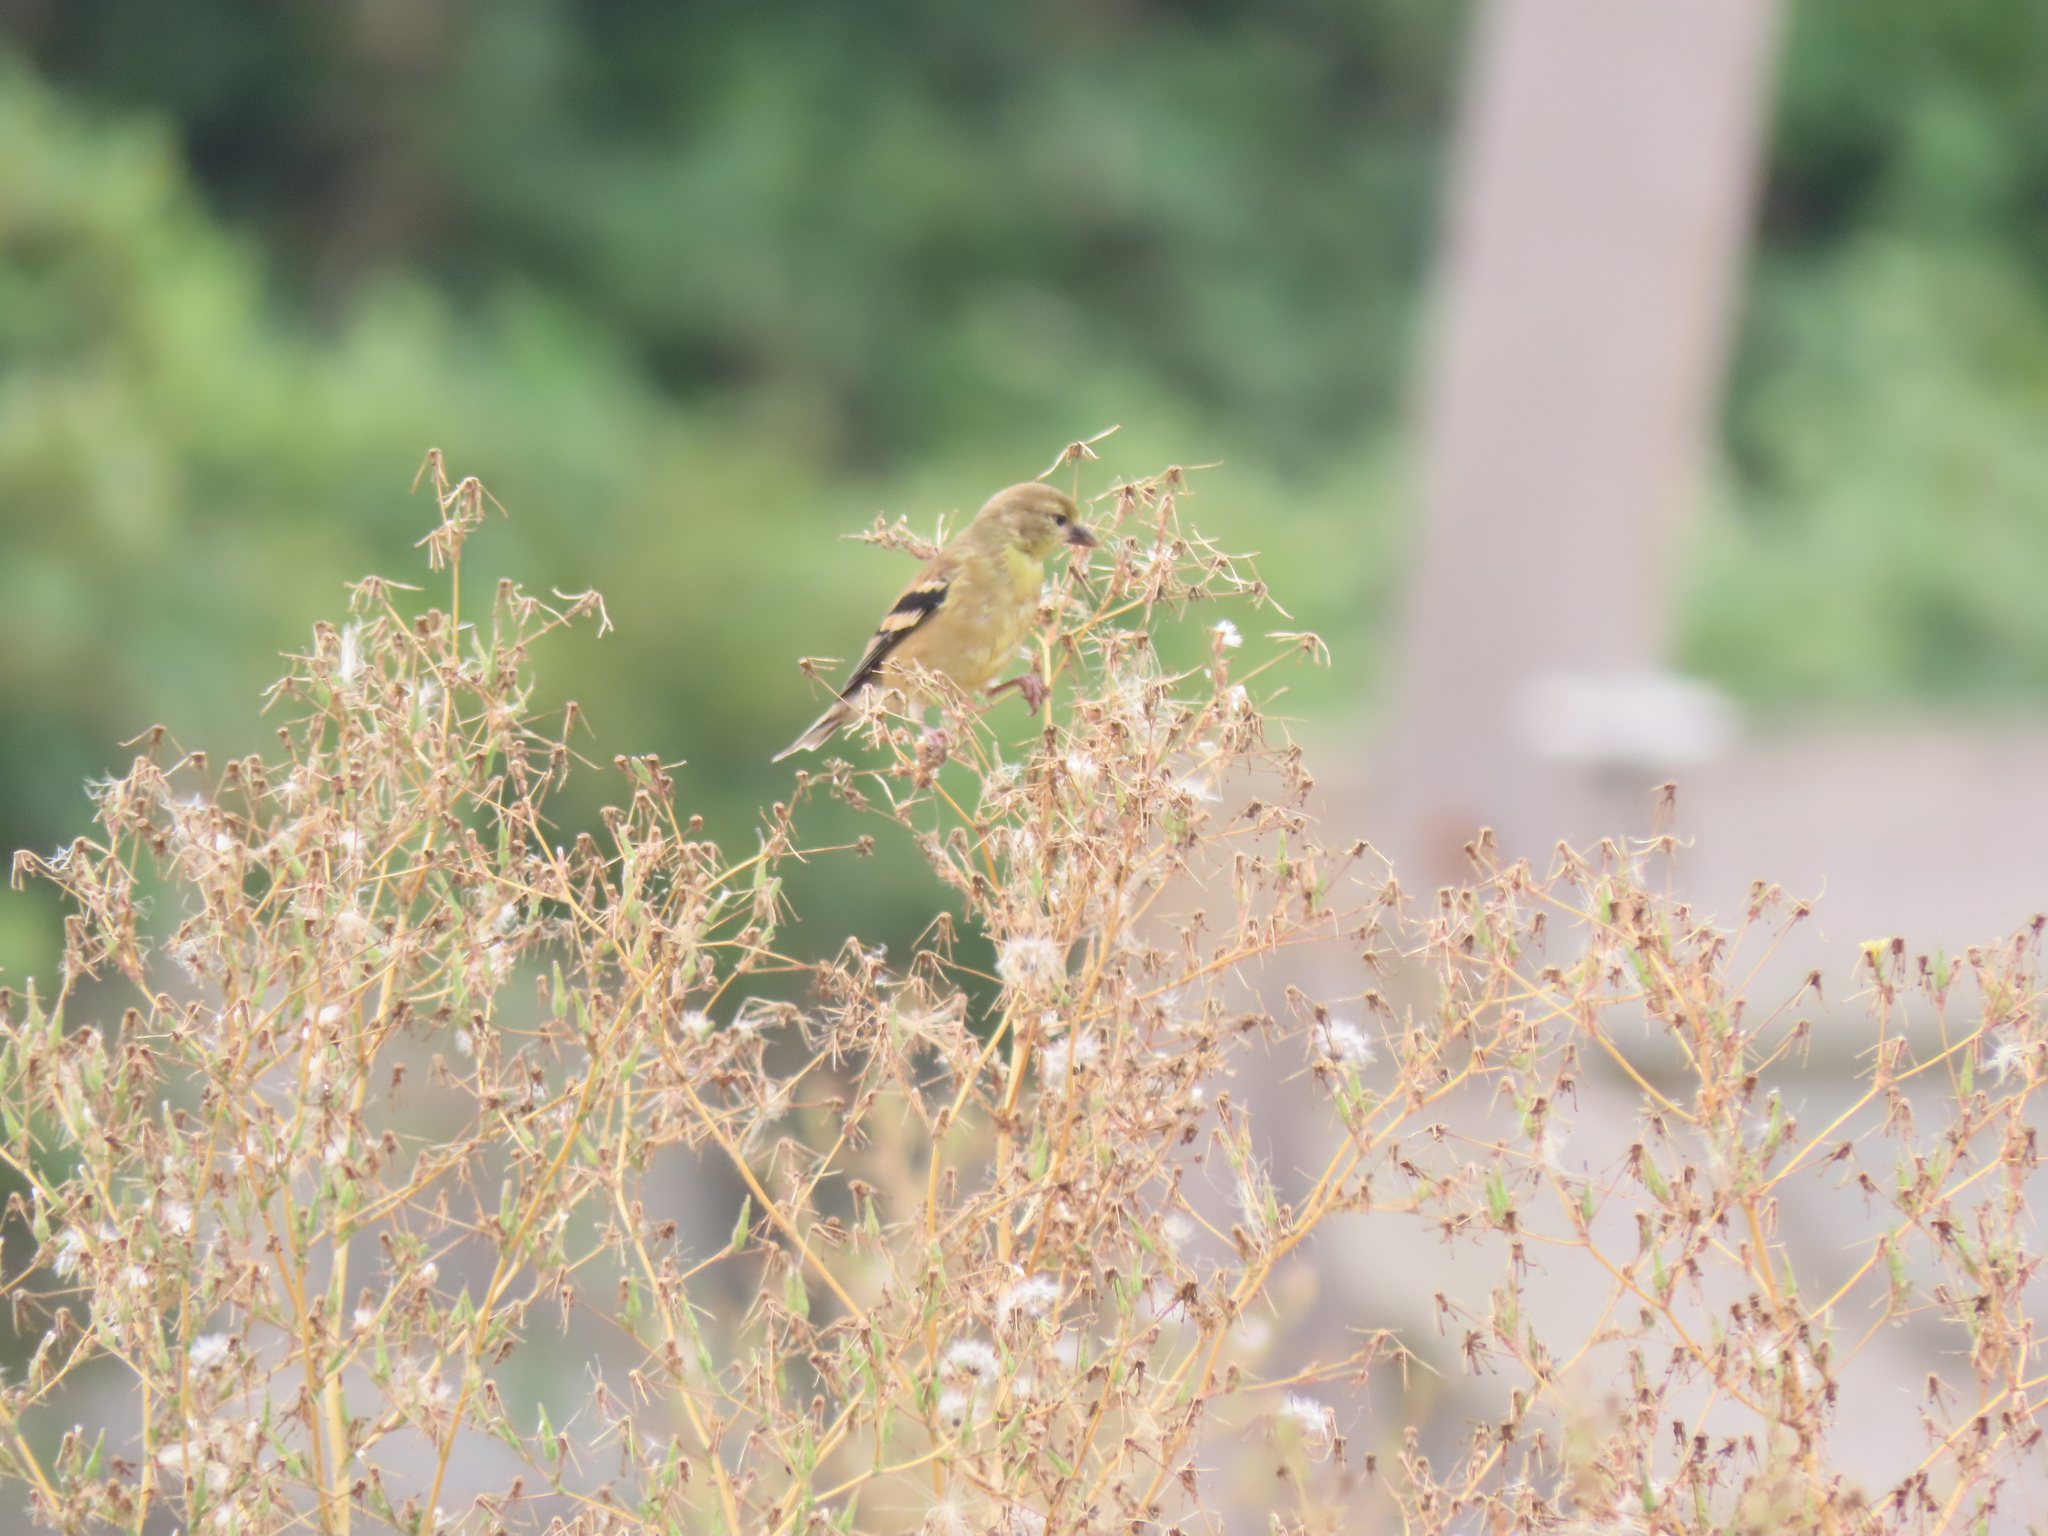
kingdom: Animalia
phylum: Chordata
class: Aves
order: Passeriformes
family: Fringillidae
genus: Spinus
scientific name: Spinus tristis
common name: American goldfinch
